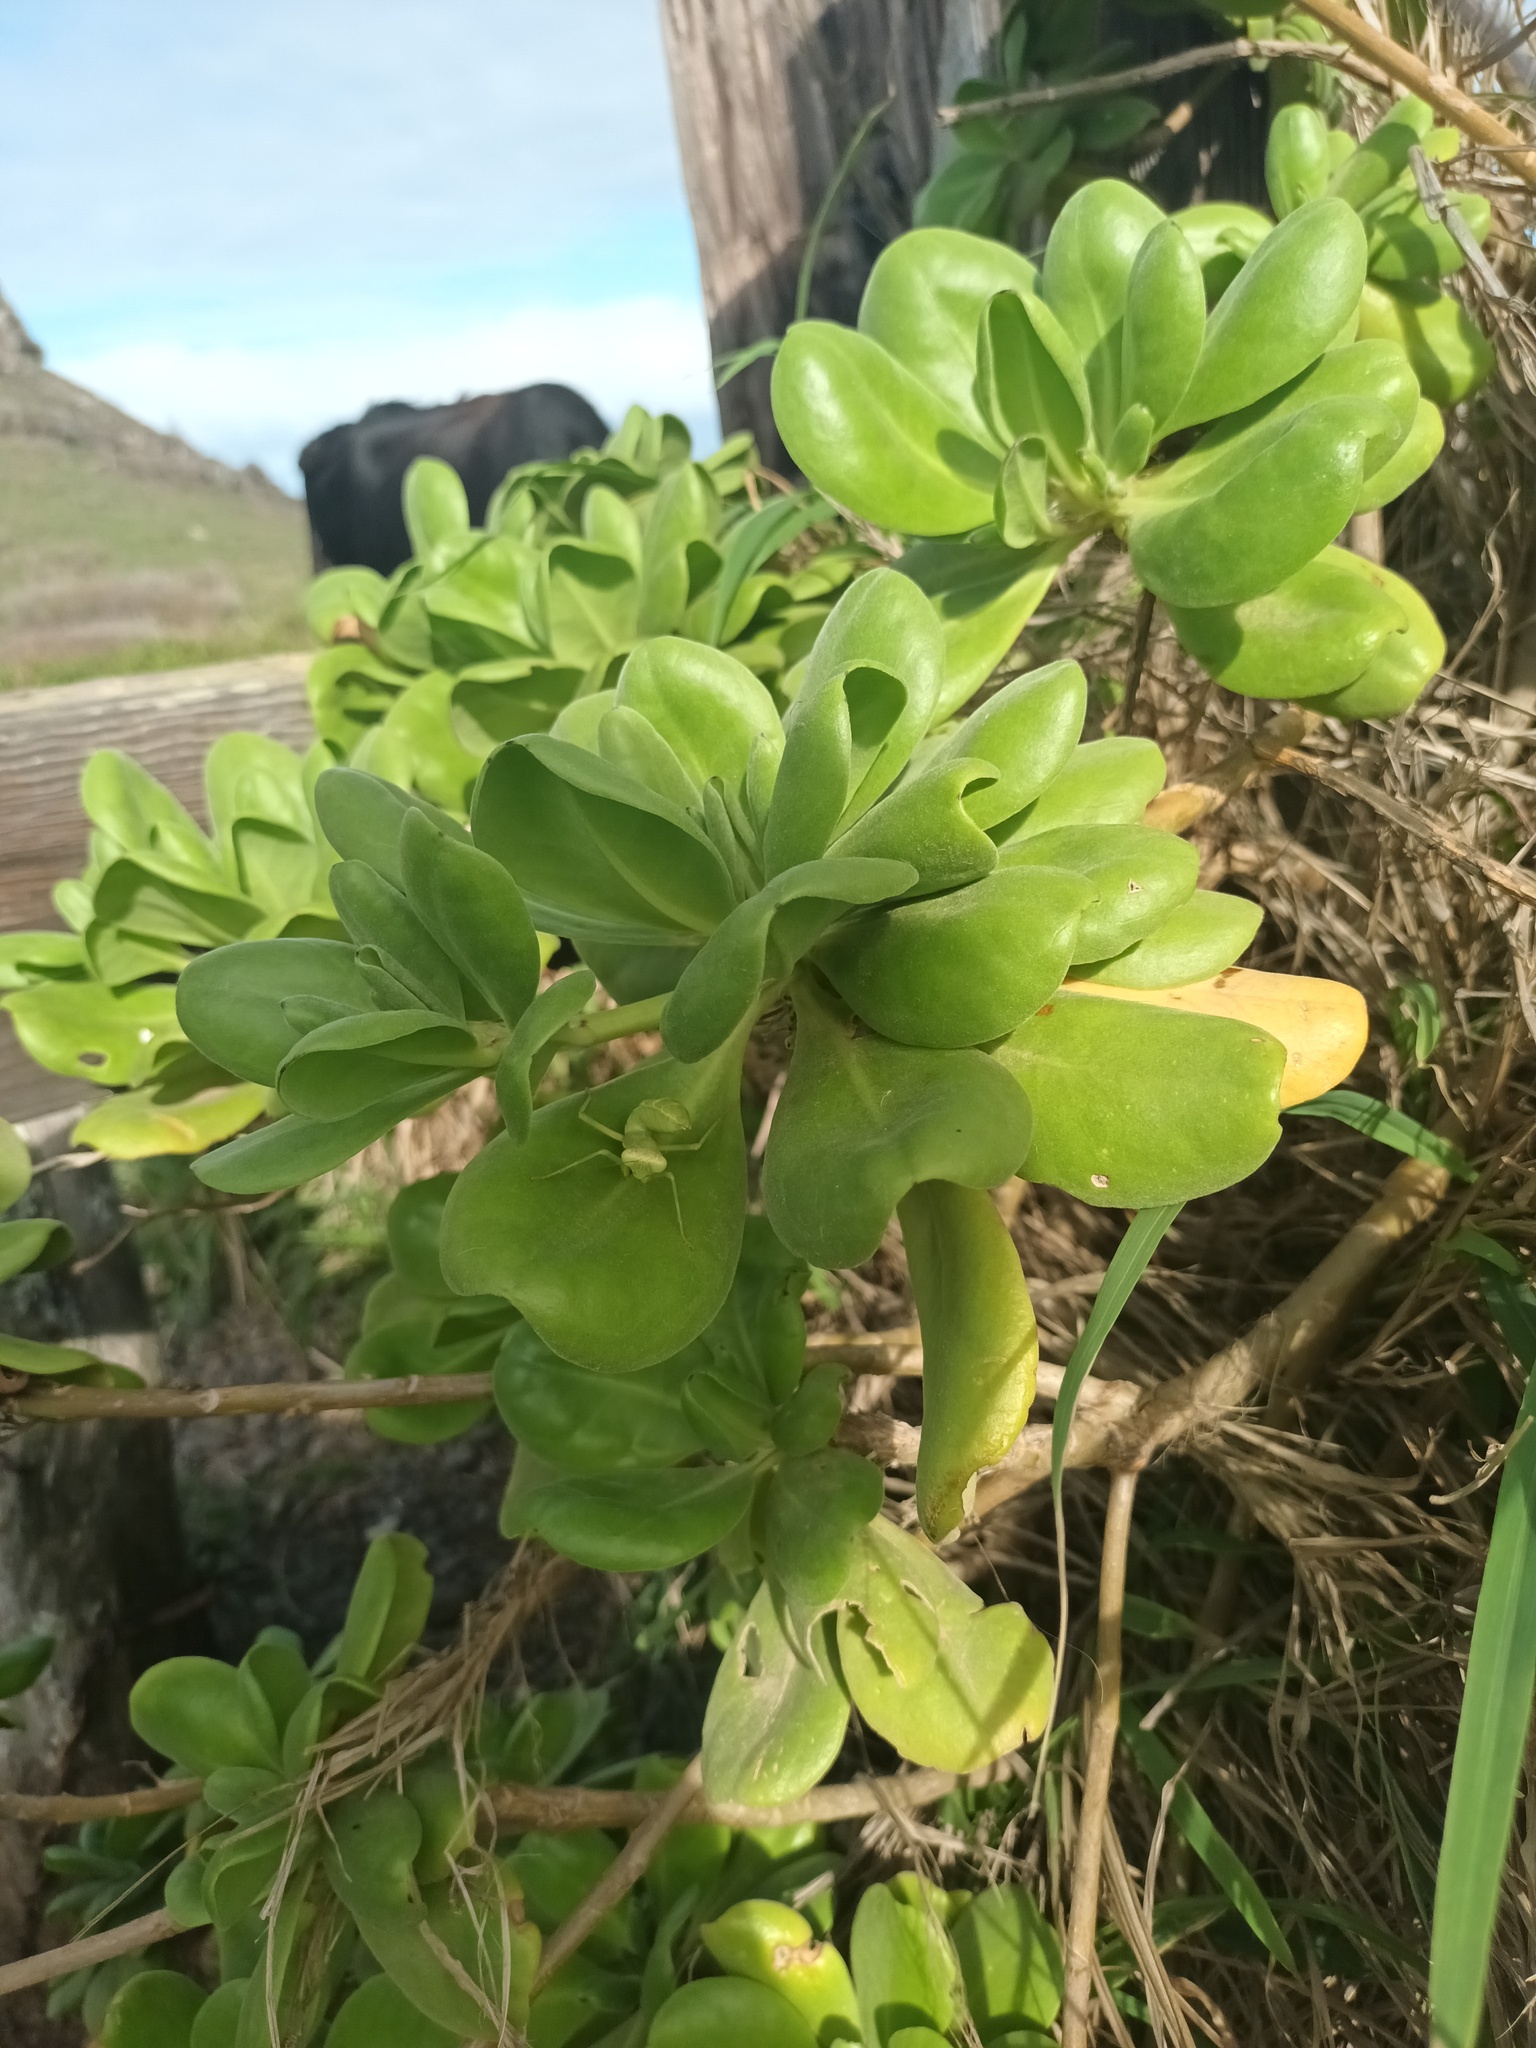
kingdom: Plantae
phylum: Tracheophyta
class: Magnoliopsida
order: Asterales
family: Goodeniaceae
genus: Scaevola
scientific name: Scaevola taccada
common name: Sea lettucetree
